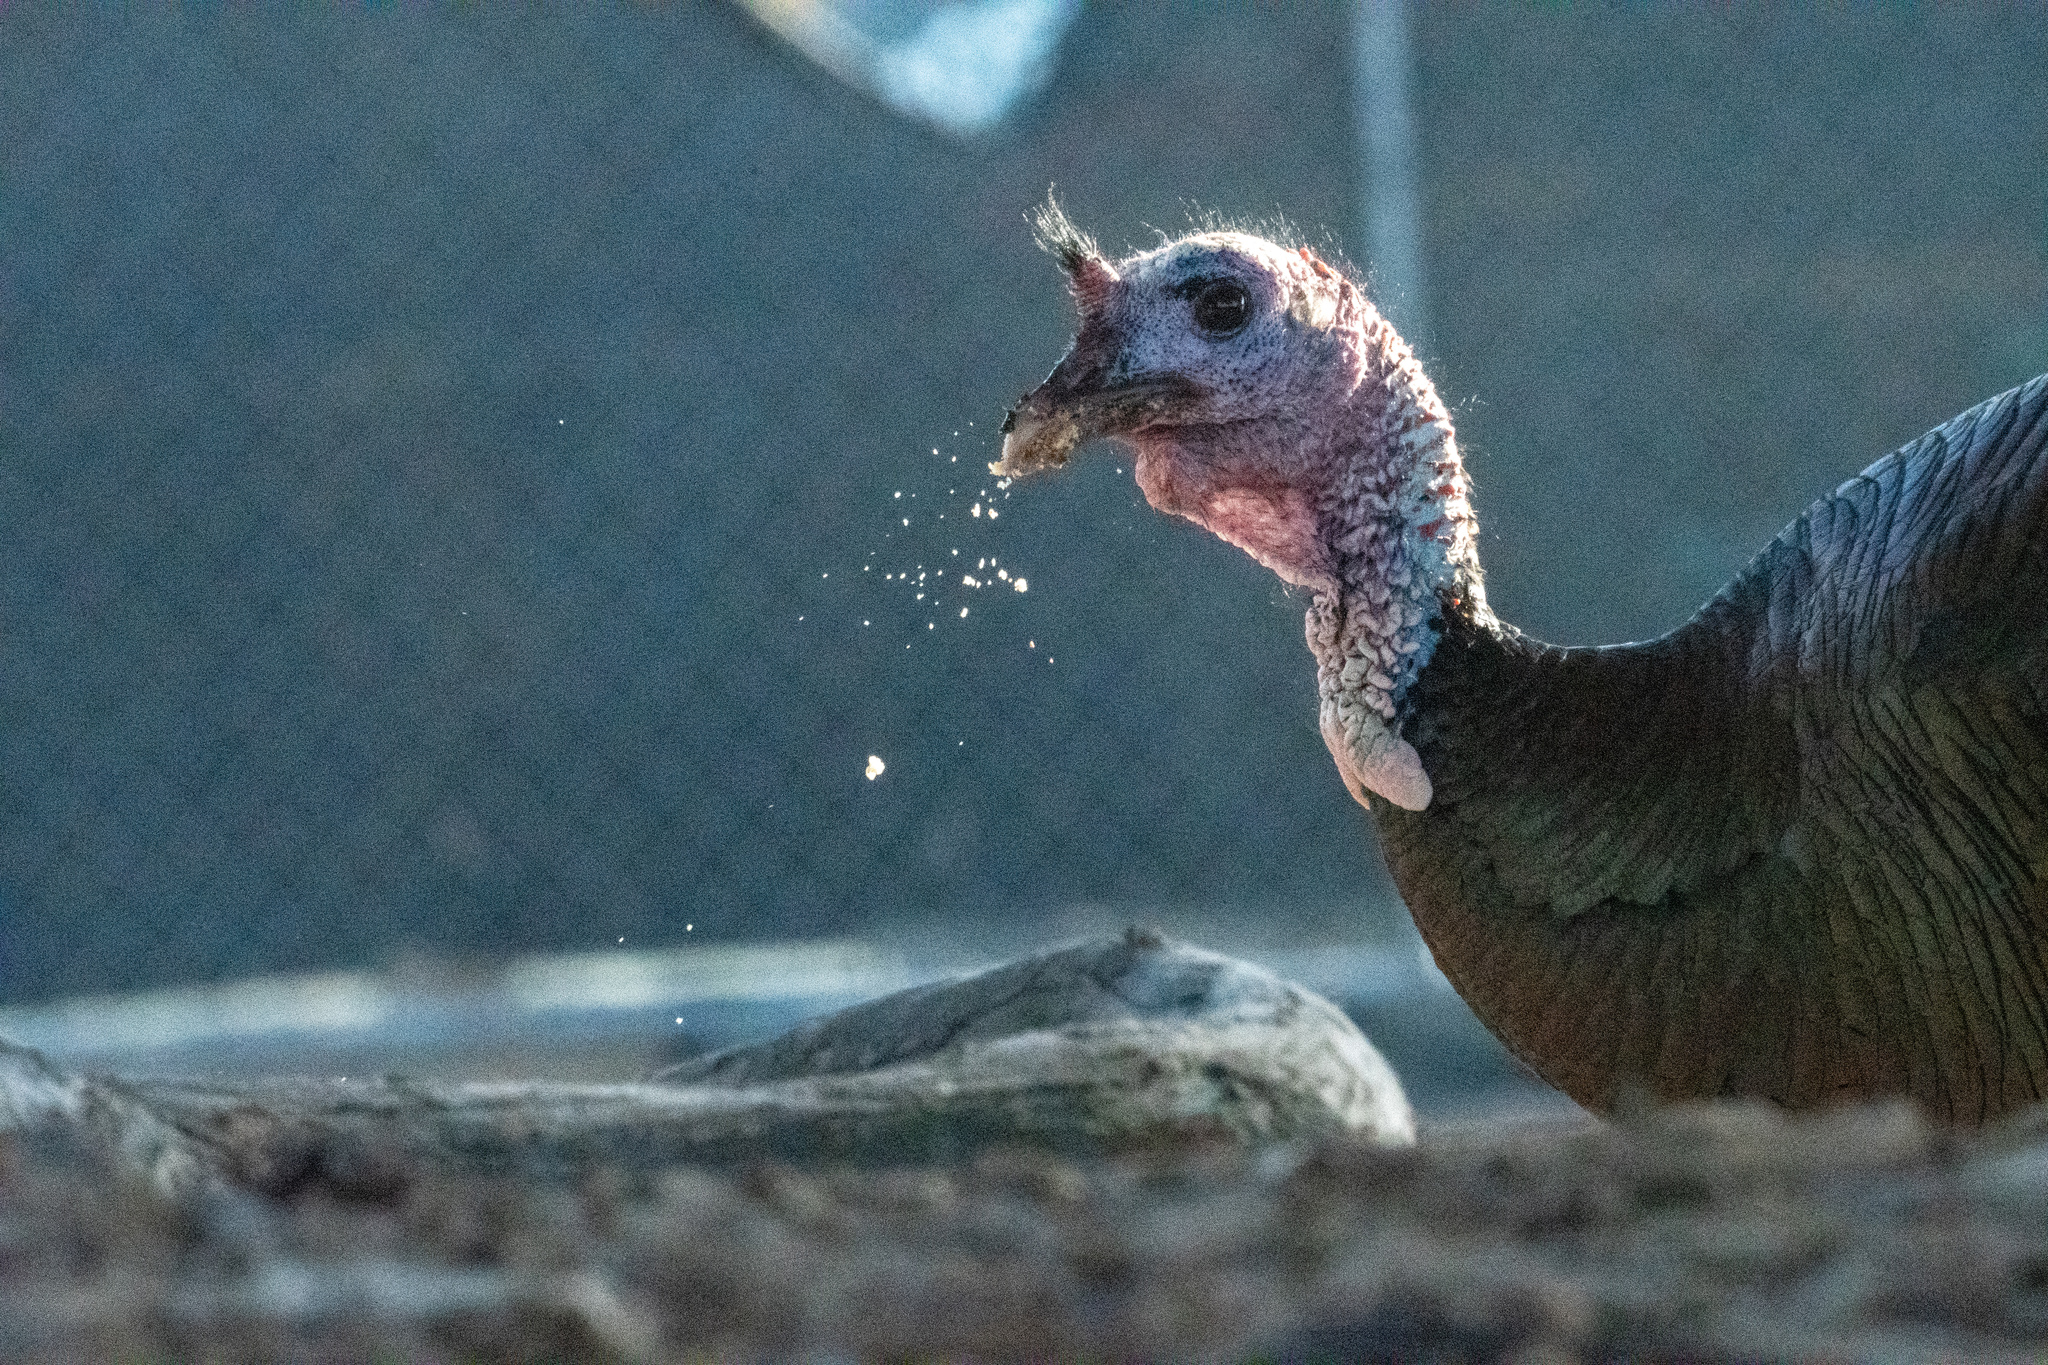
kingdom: Animalia
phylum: Chordata
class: Aves
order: Galliformes
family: Phasianidae
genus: Meleagris
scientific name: Meleagris gallopavo
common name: Wild turkey
